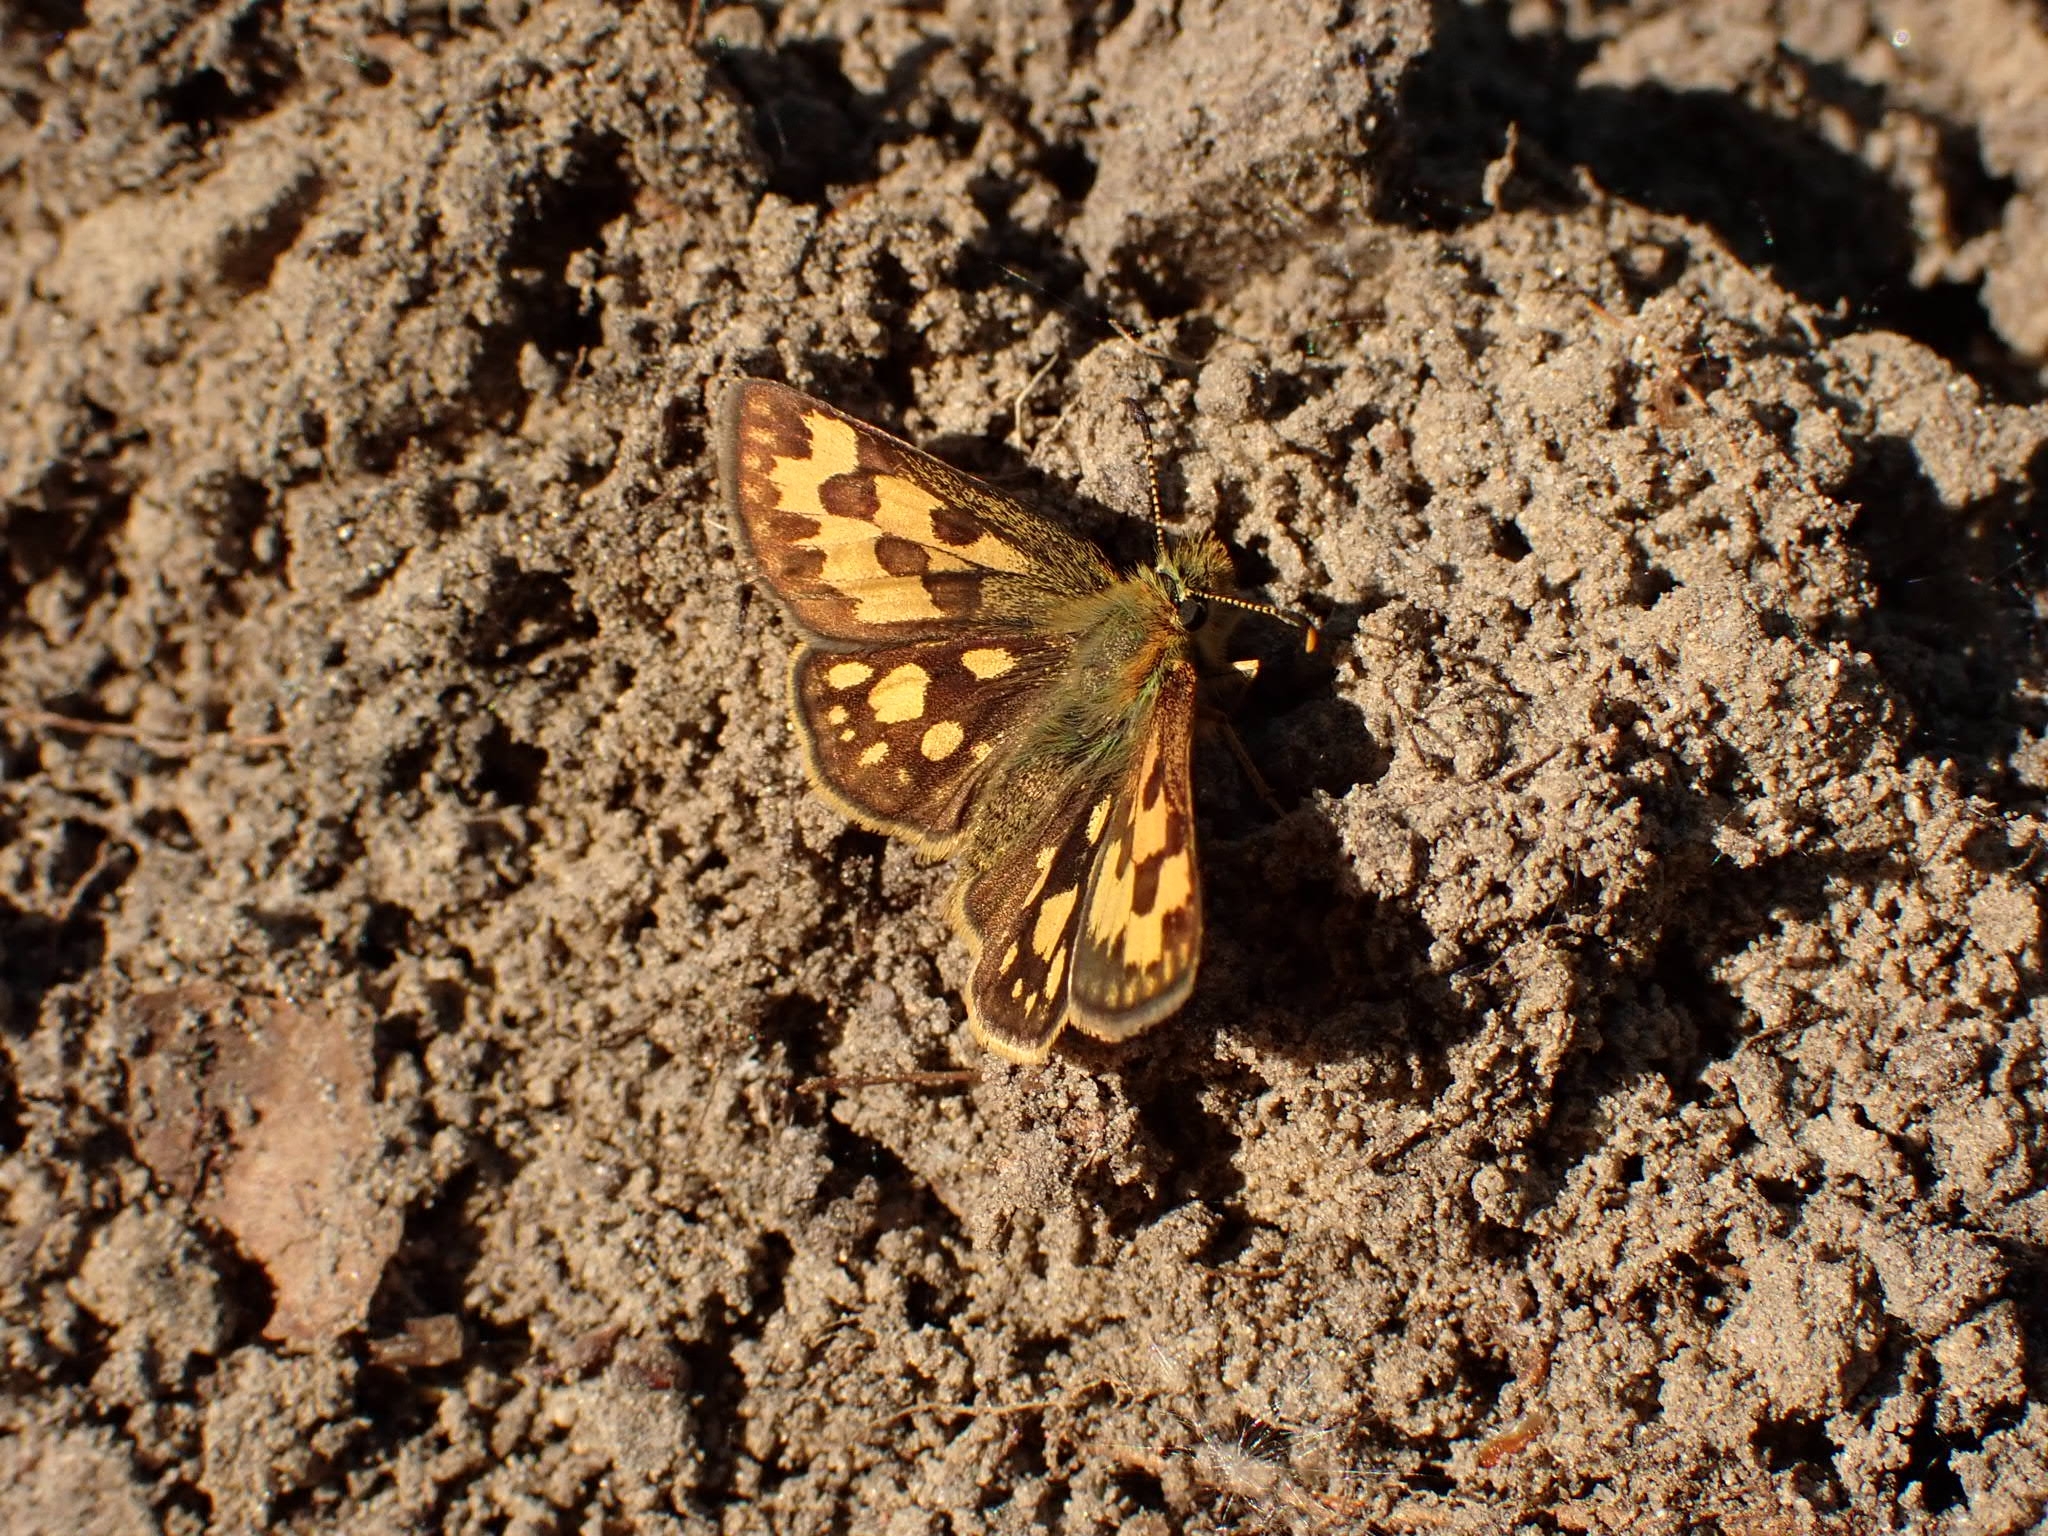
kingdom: Animalia
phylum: Arthropoda
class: Insecta
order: Lepidoptera
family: Hesperiidae
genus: Carterocephalus
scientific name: Carterocephalus silvicola
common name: Northern chequered skipper
